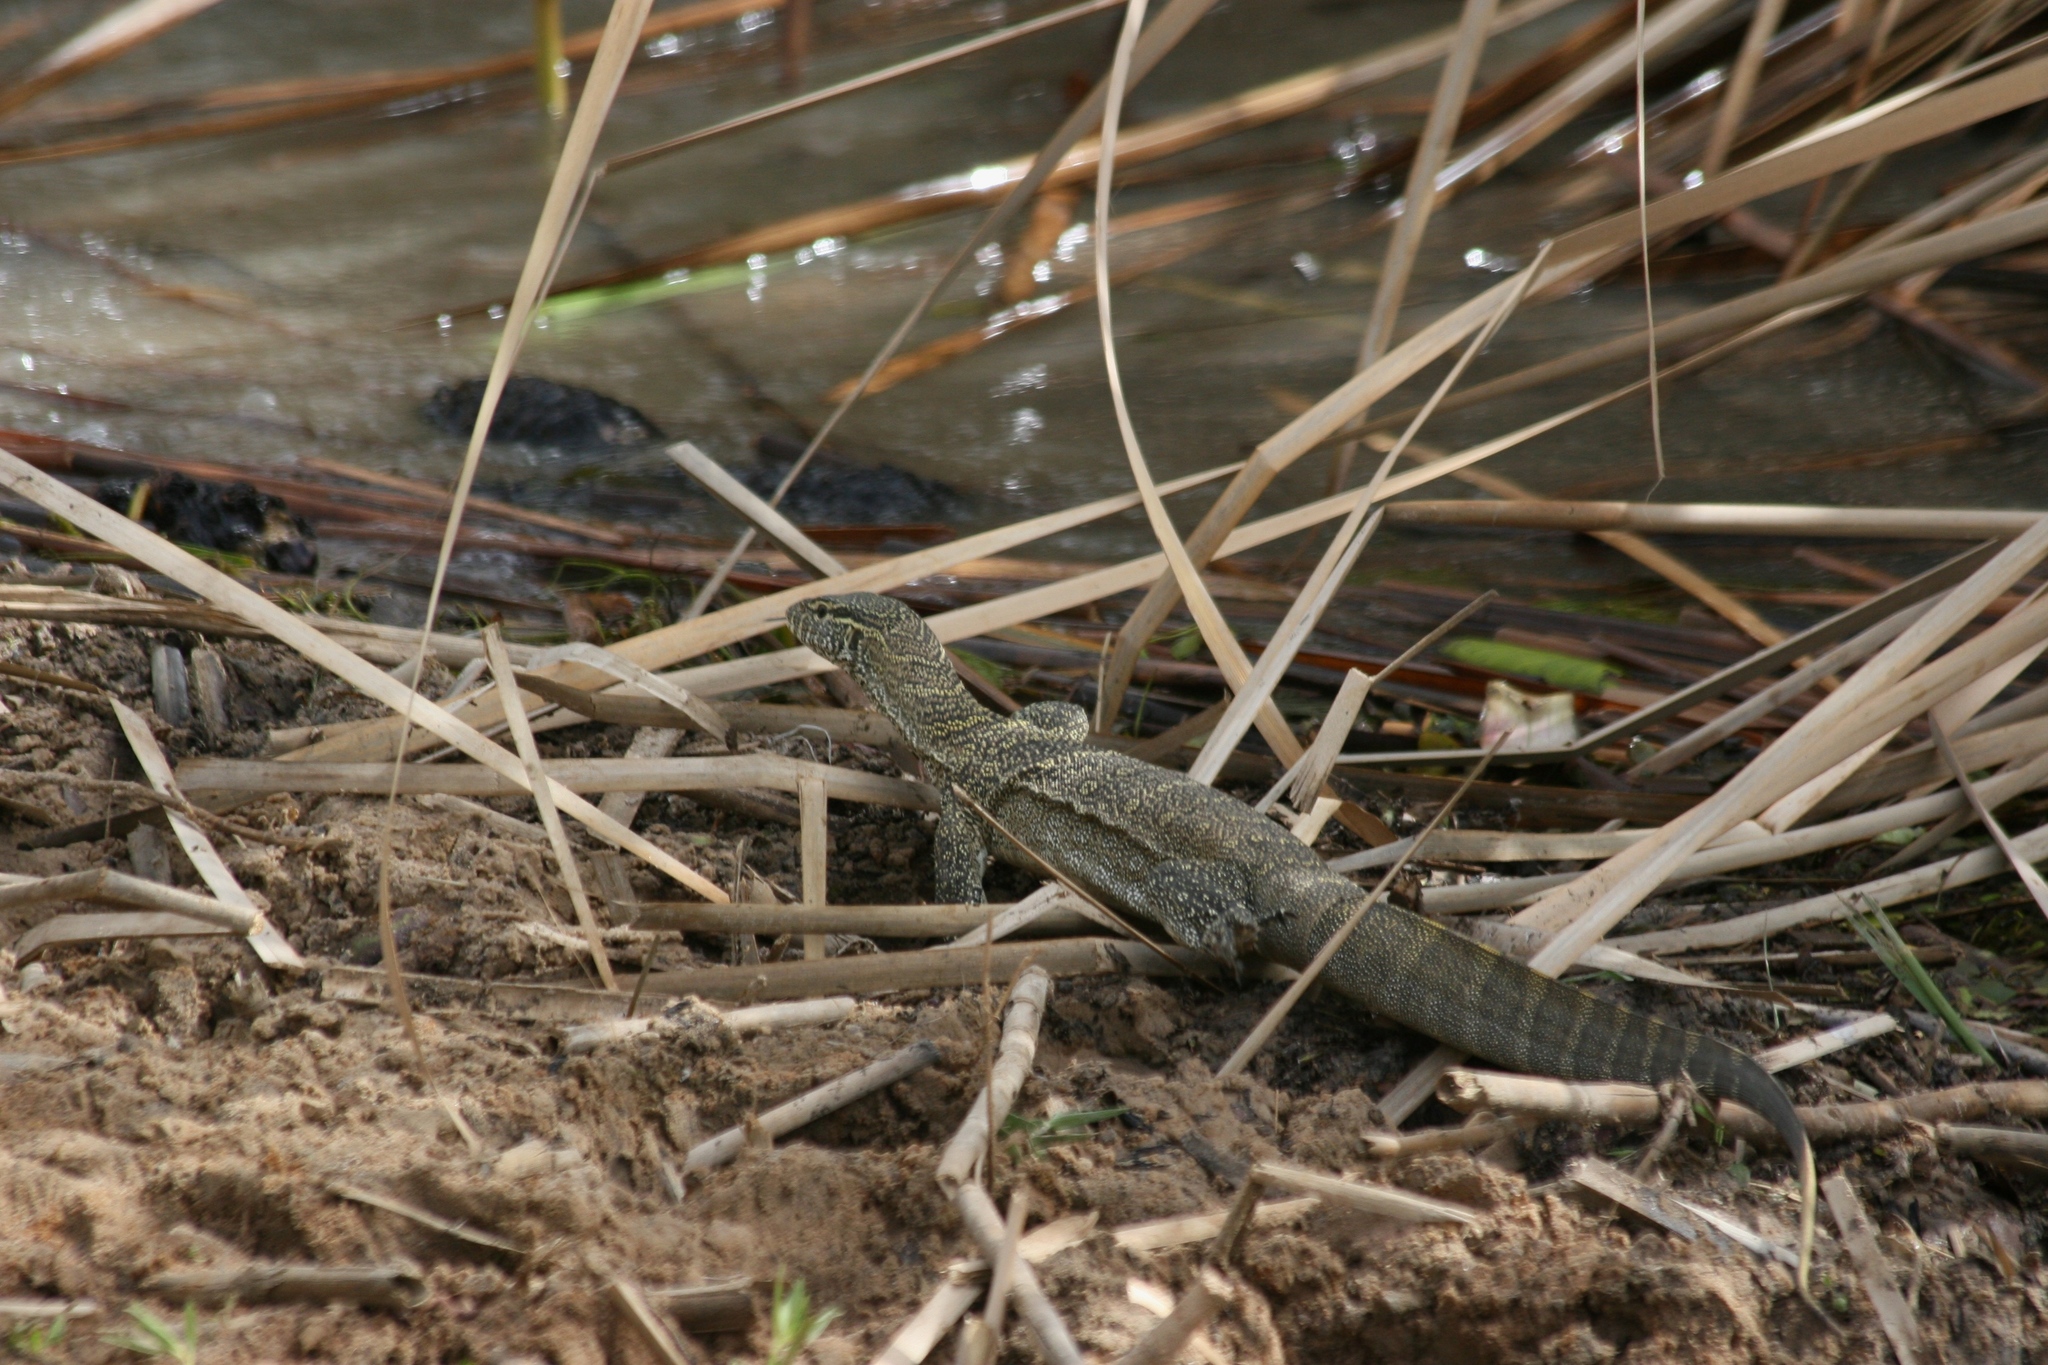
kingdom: Animalia
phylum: Chordata
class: Squamata
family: Varanidae
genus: Varanus
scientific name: Varanus niloticus
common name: Nile monitor
